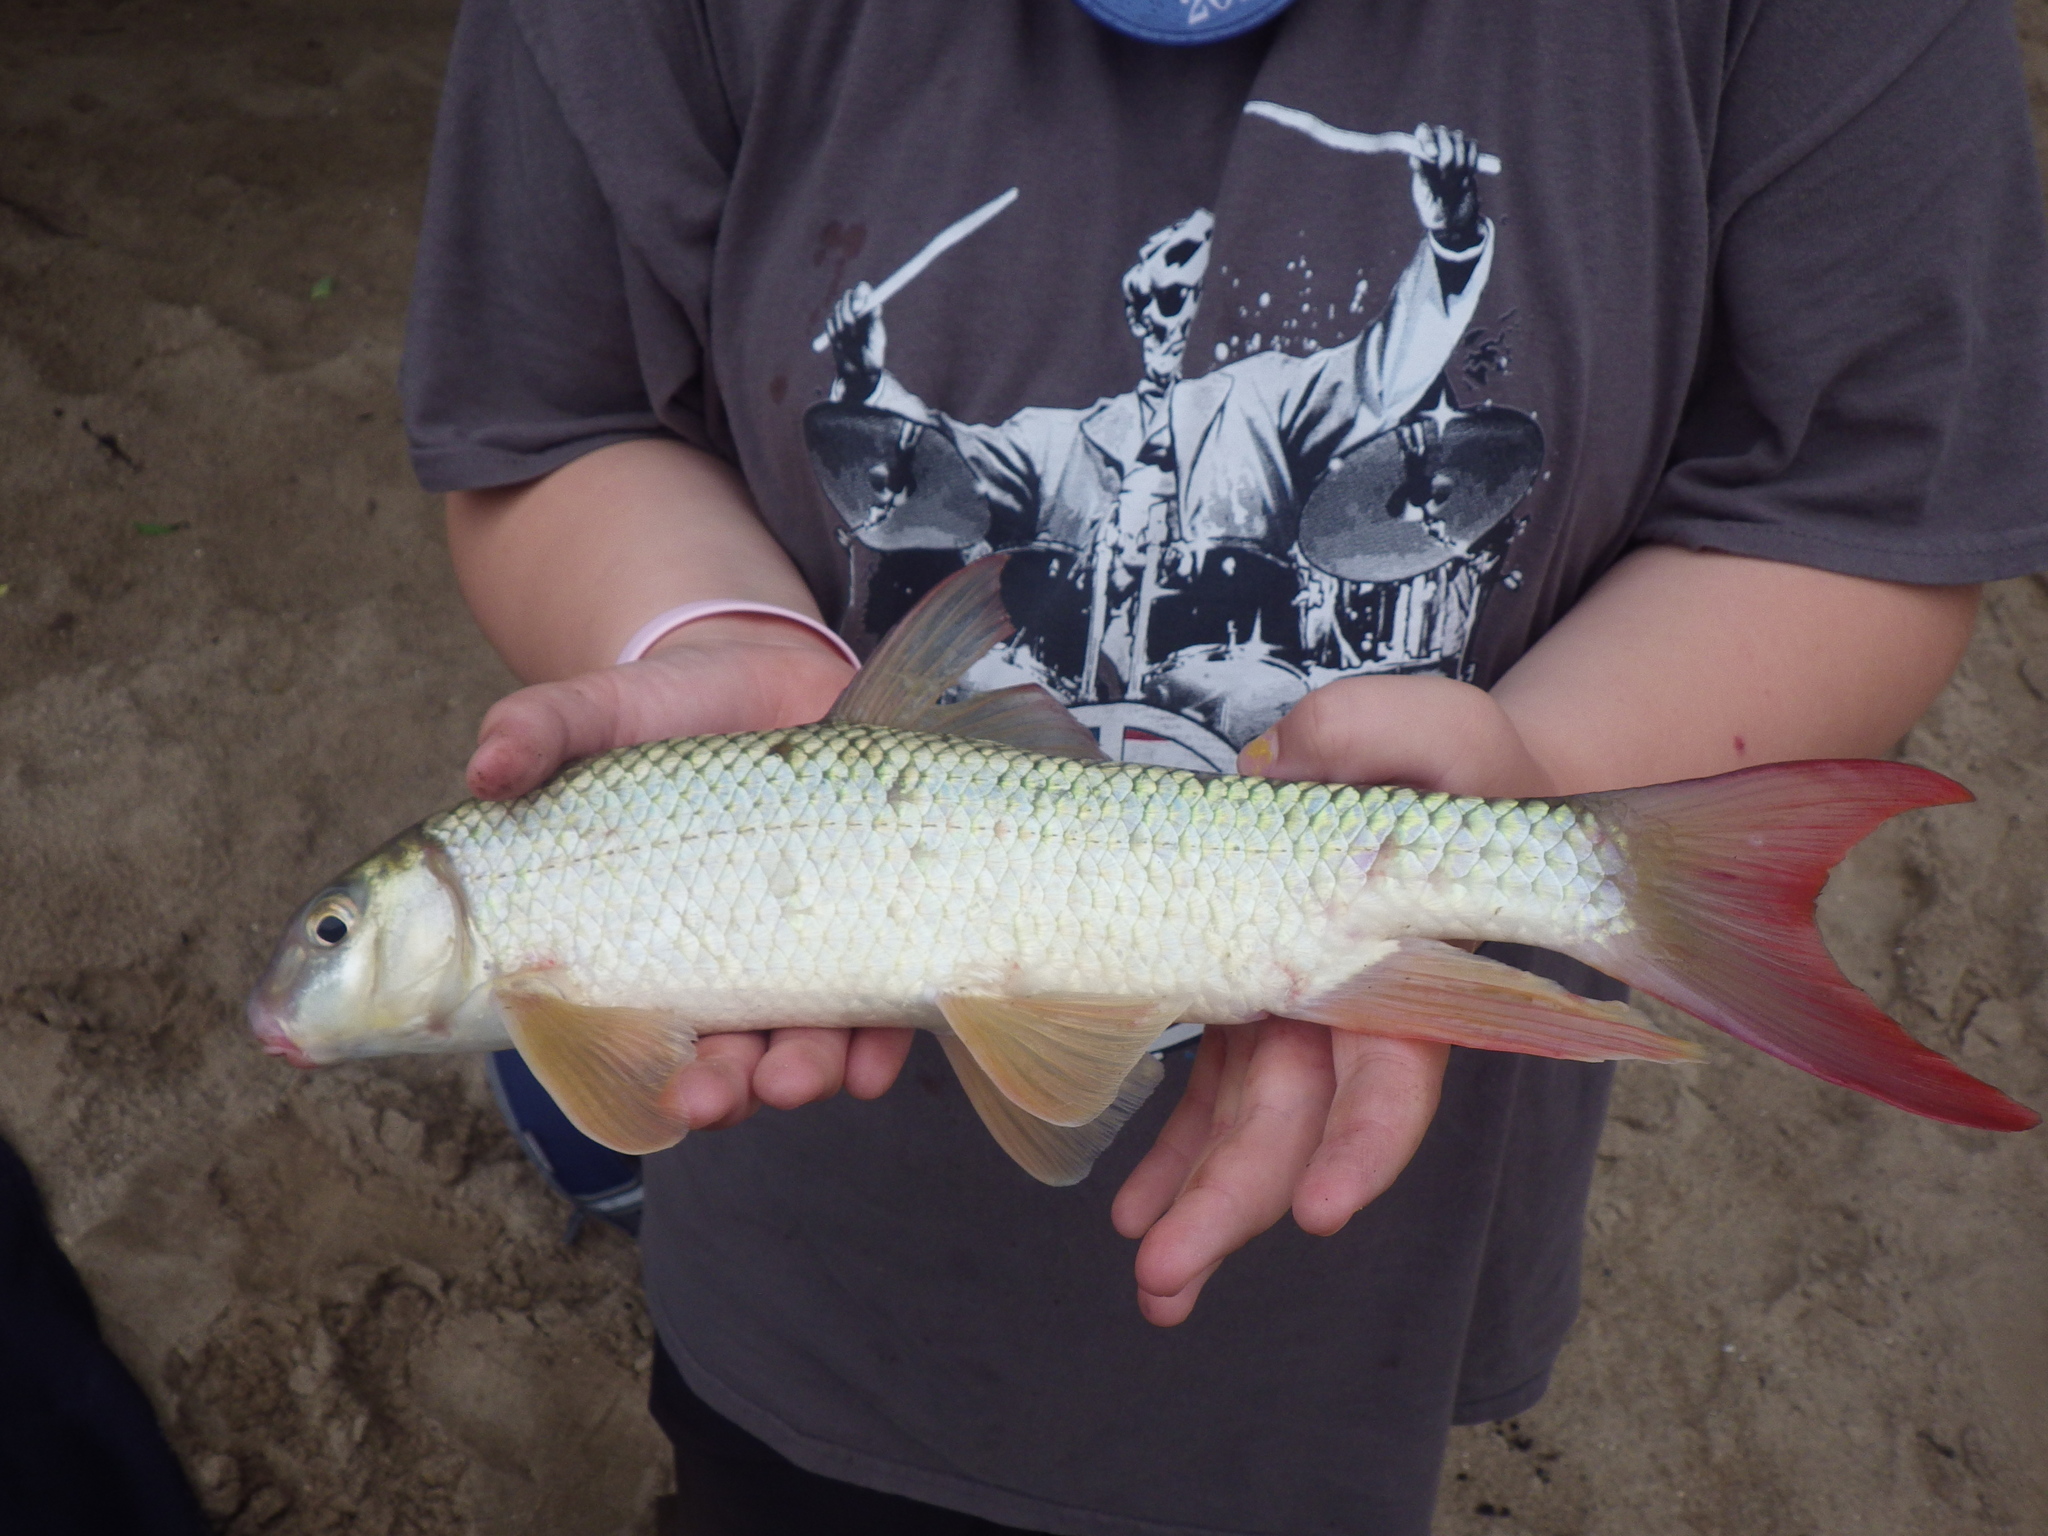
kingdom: Animalia
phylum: Chordata
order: Cypriniformes
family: Catostomidae
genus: Moxostoma
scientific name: Moxostoma breviceps
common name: Smallmouth redhorse
